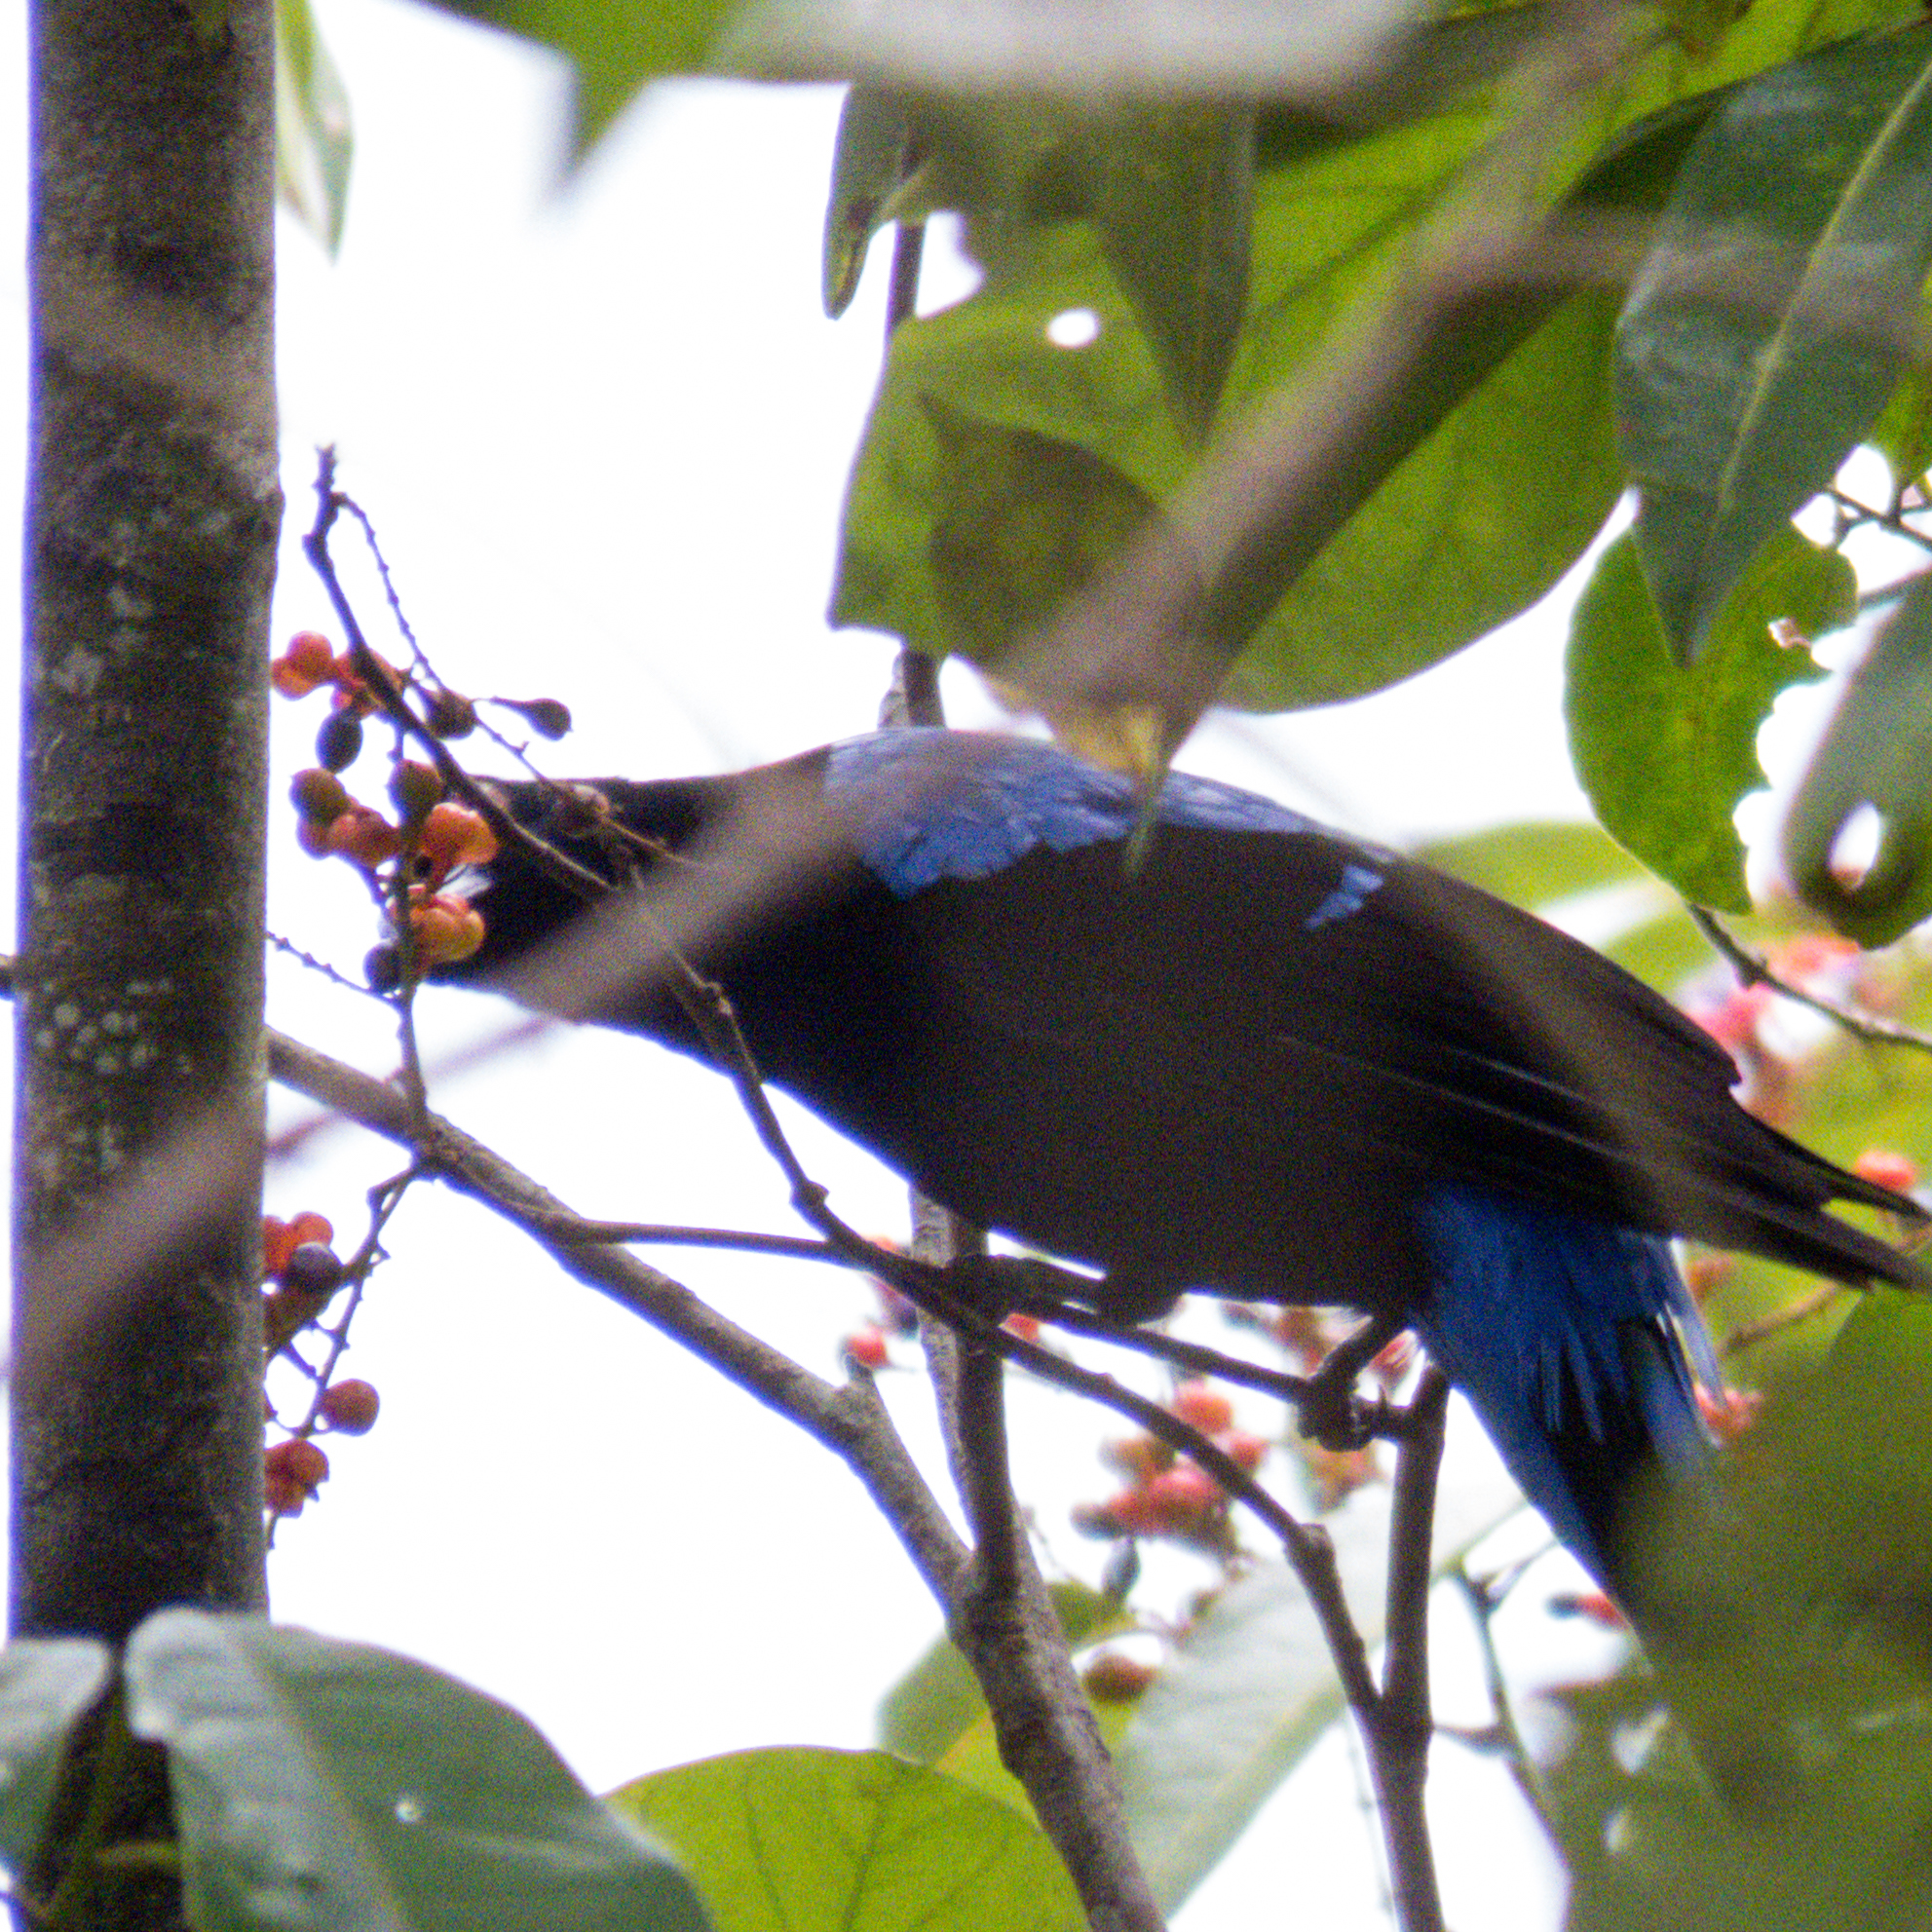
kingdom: Animalia
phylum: Chordata
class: Aves
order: Passeriformes
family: Irenidae
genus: Irena
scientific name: Irena puella
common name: Asian fairy-bluebird
